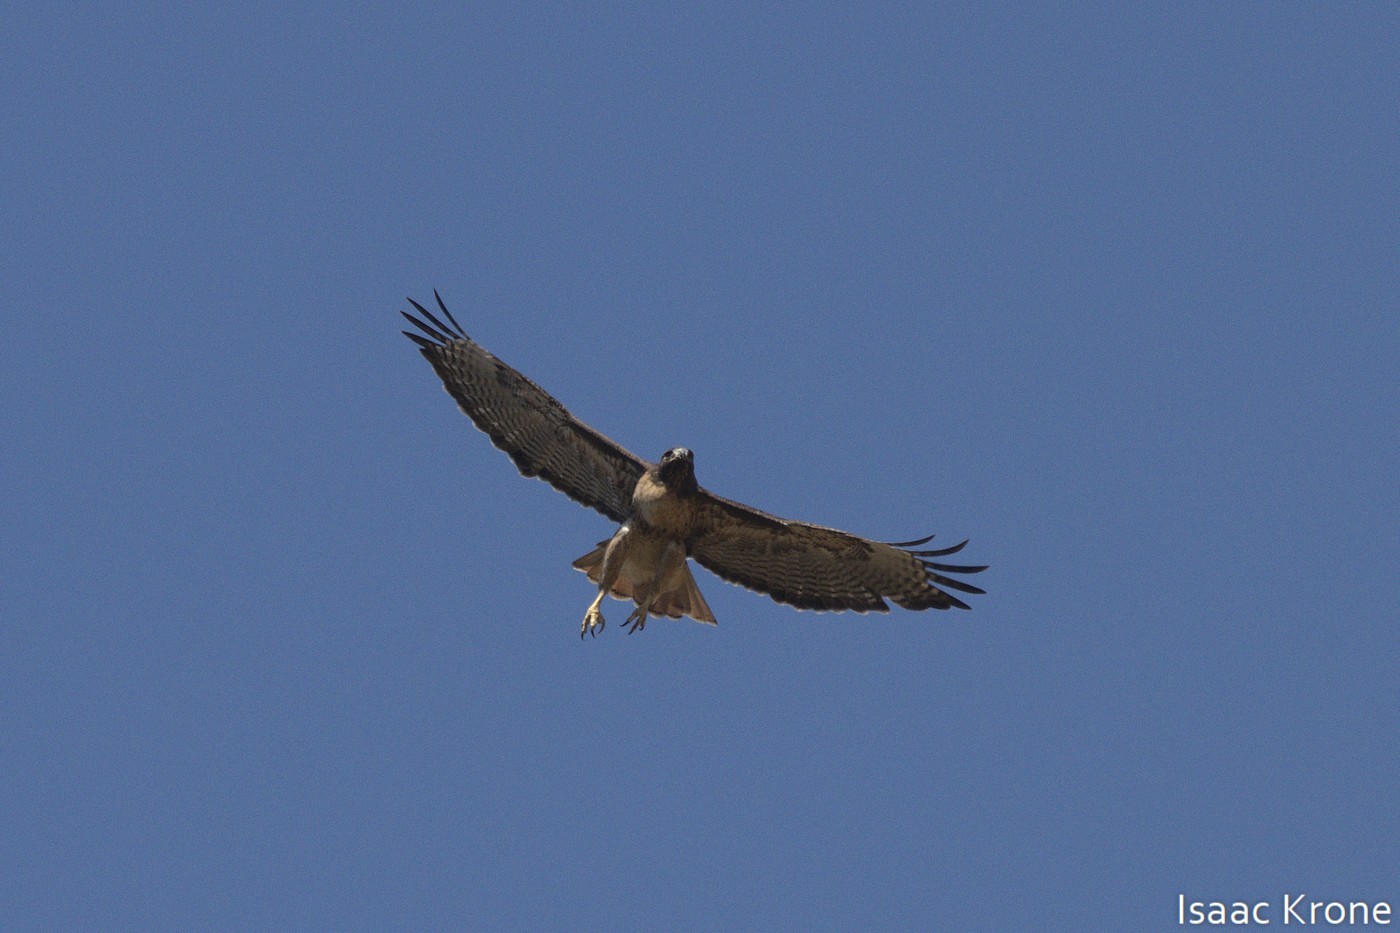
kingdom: Animalia
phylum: Chordata
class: Aves
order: Accipitriformes
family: Accipitridae
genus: Buteo
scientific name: Buteo jamaicensis
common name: Red-tailed hawk
